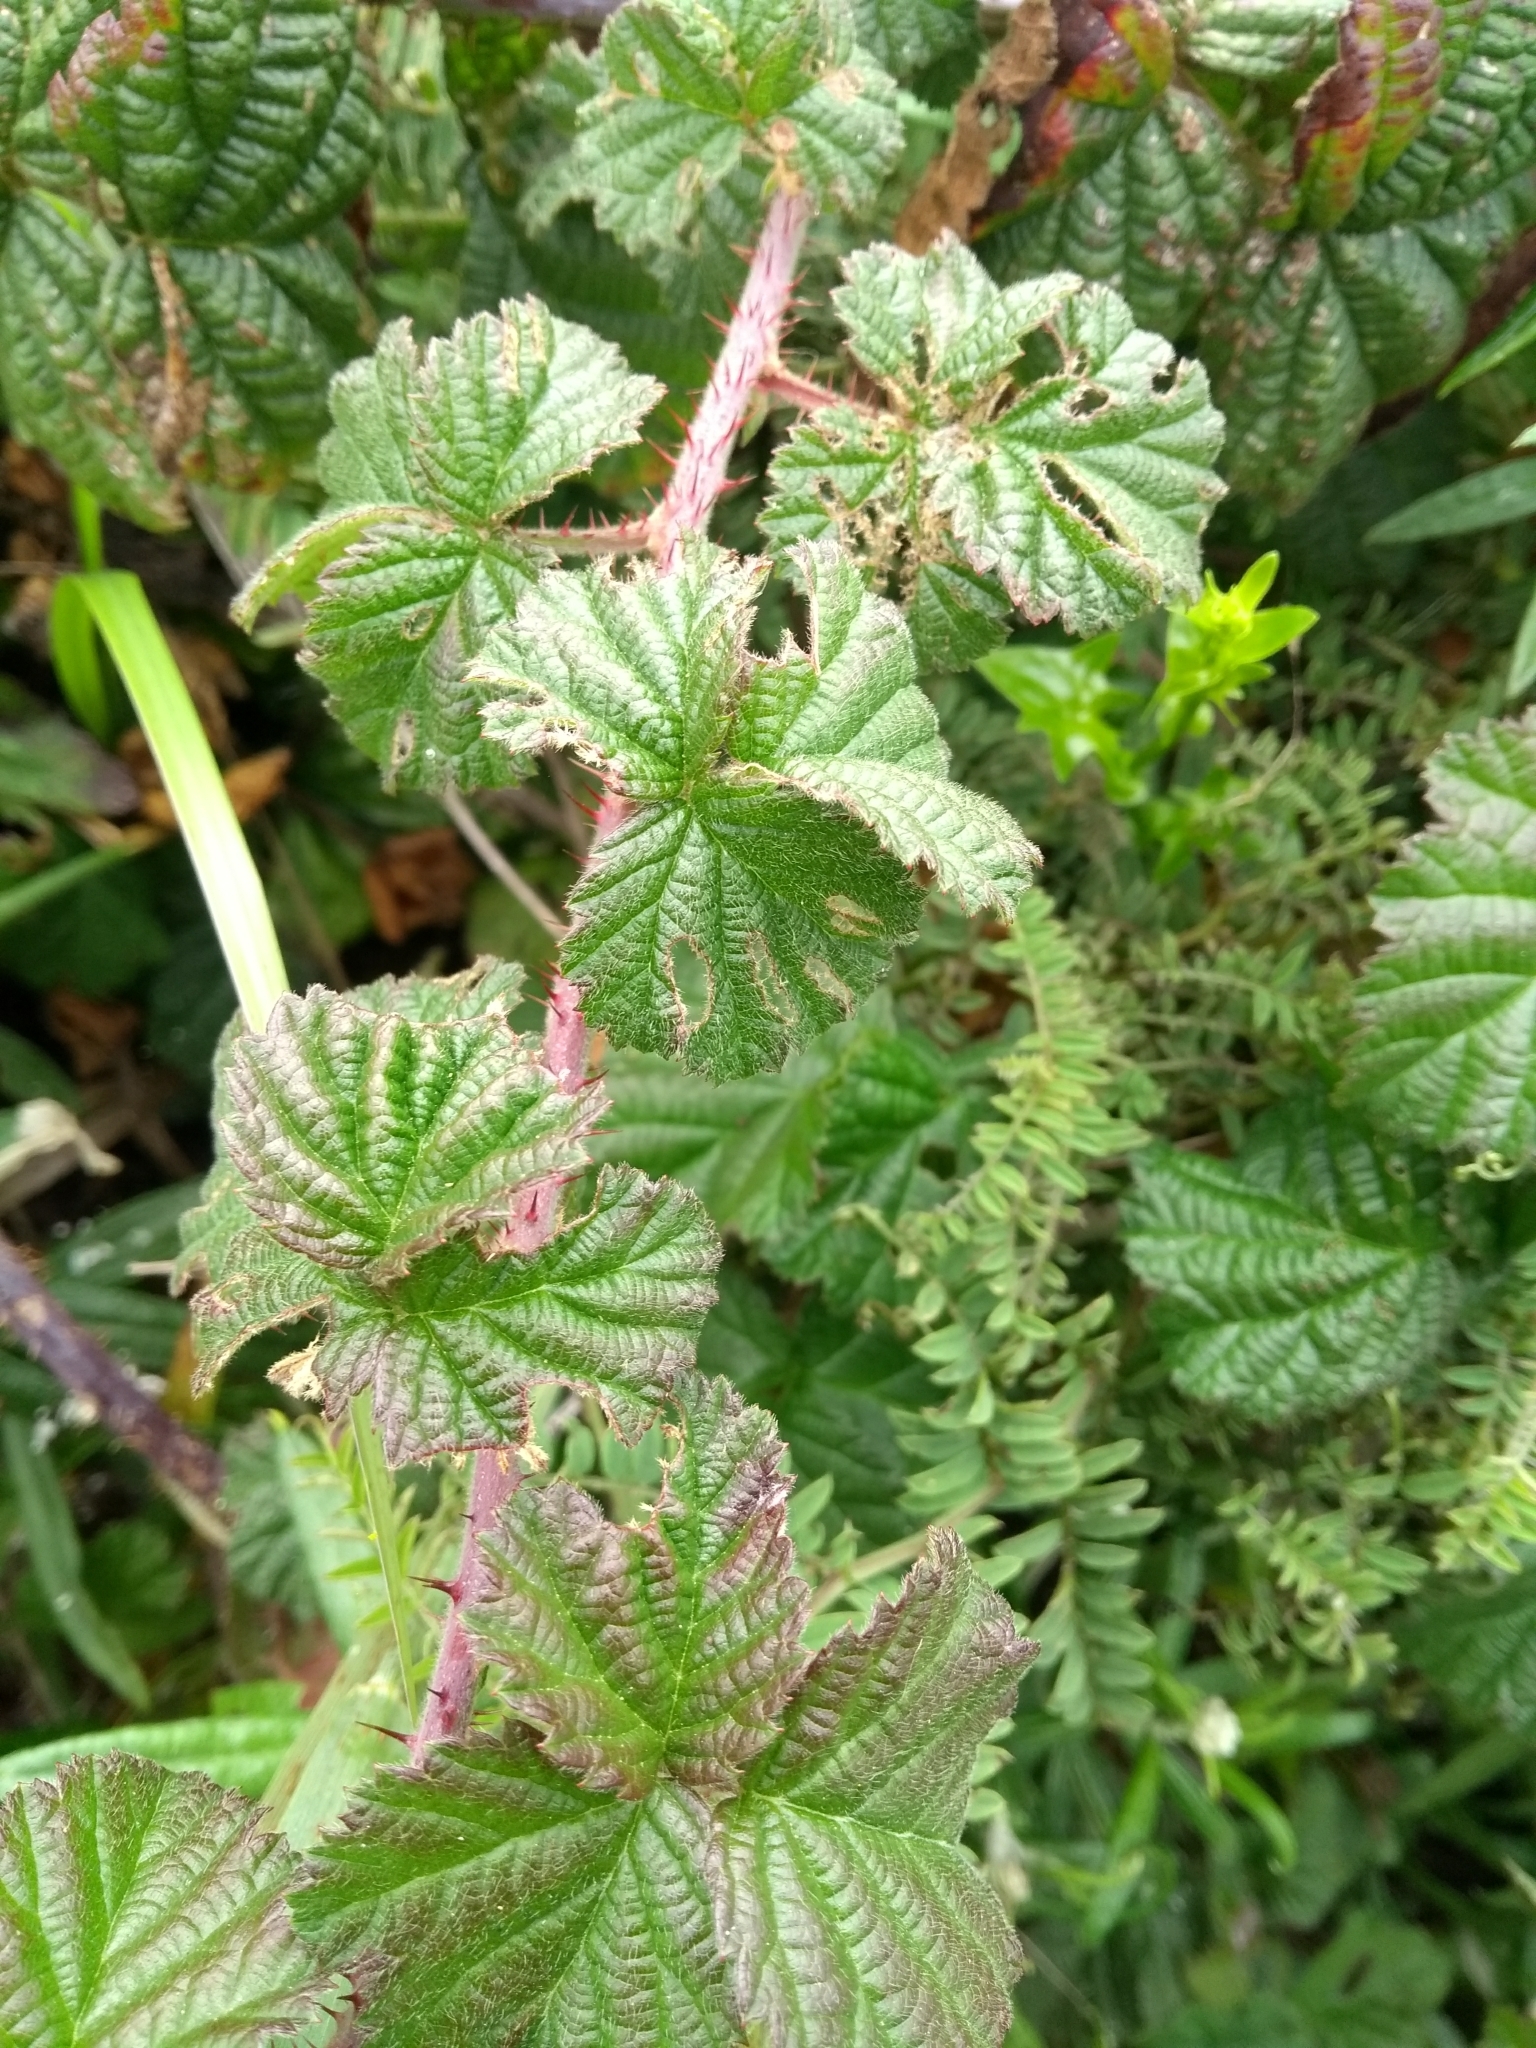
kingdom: Plantae
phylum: Tracheophyta
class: Magnoliopsida
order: Rosales
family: Rosaceae
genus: Rubus
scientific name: Rubus ursinus
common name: Pacific blackberry
